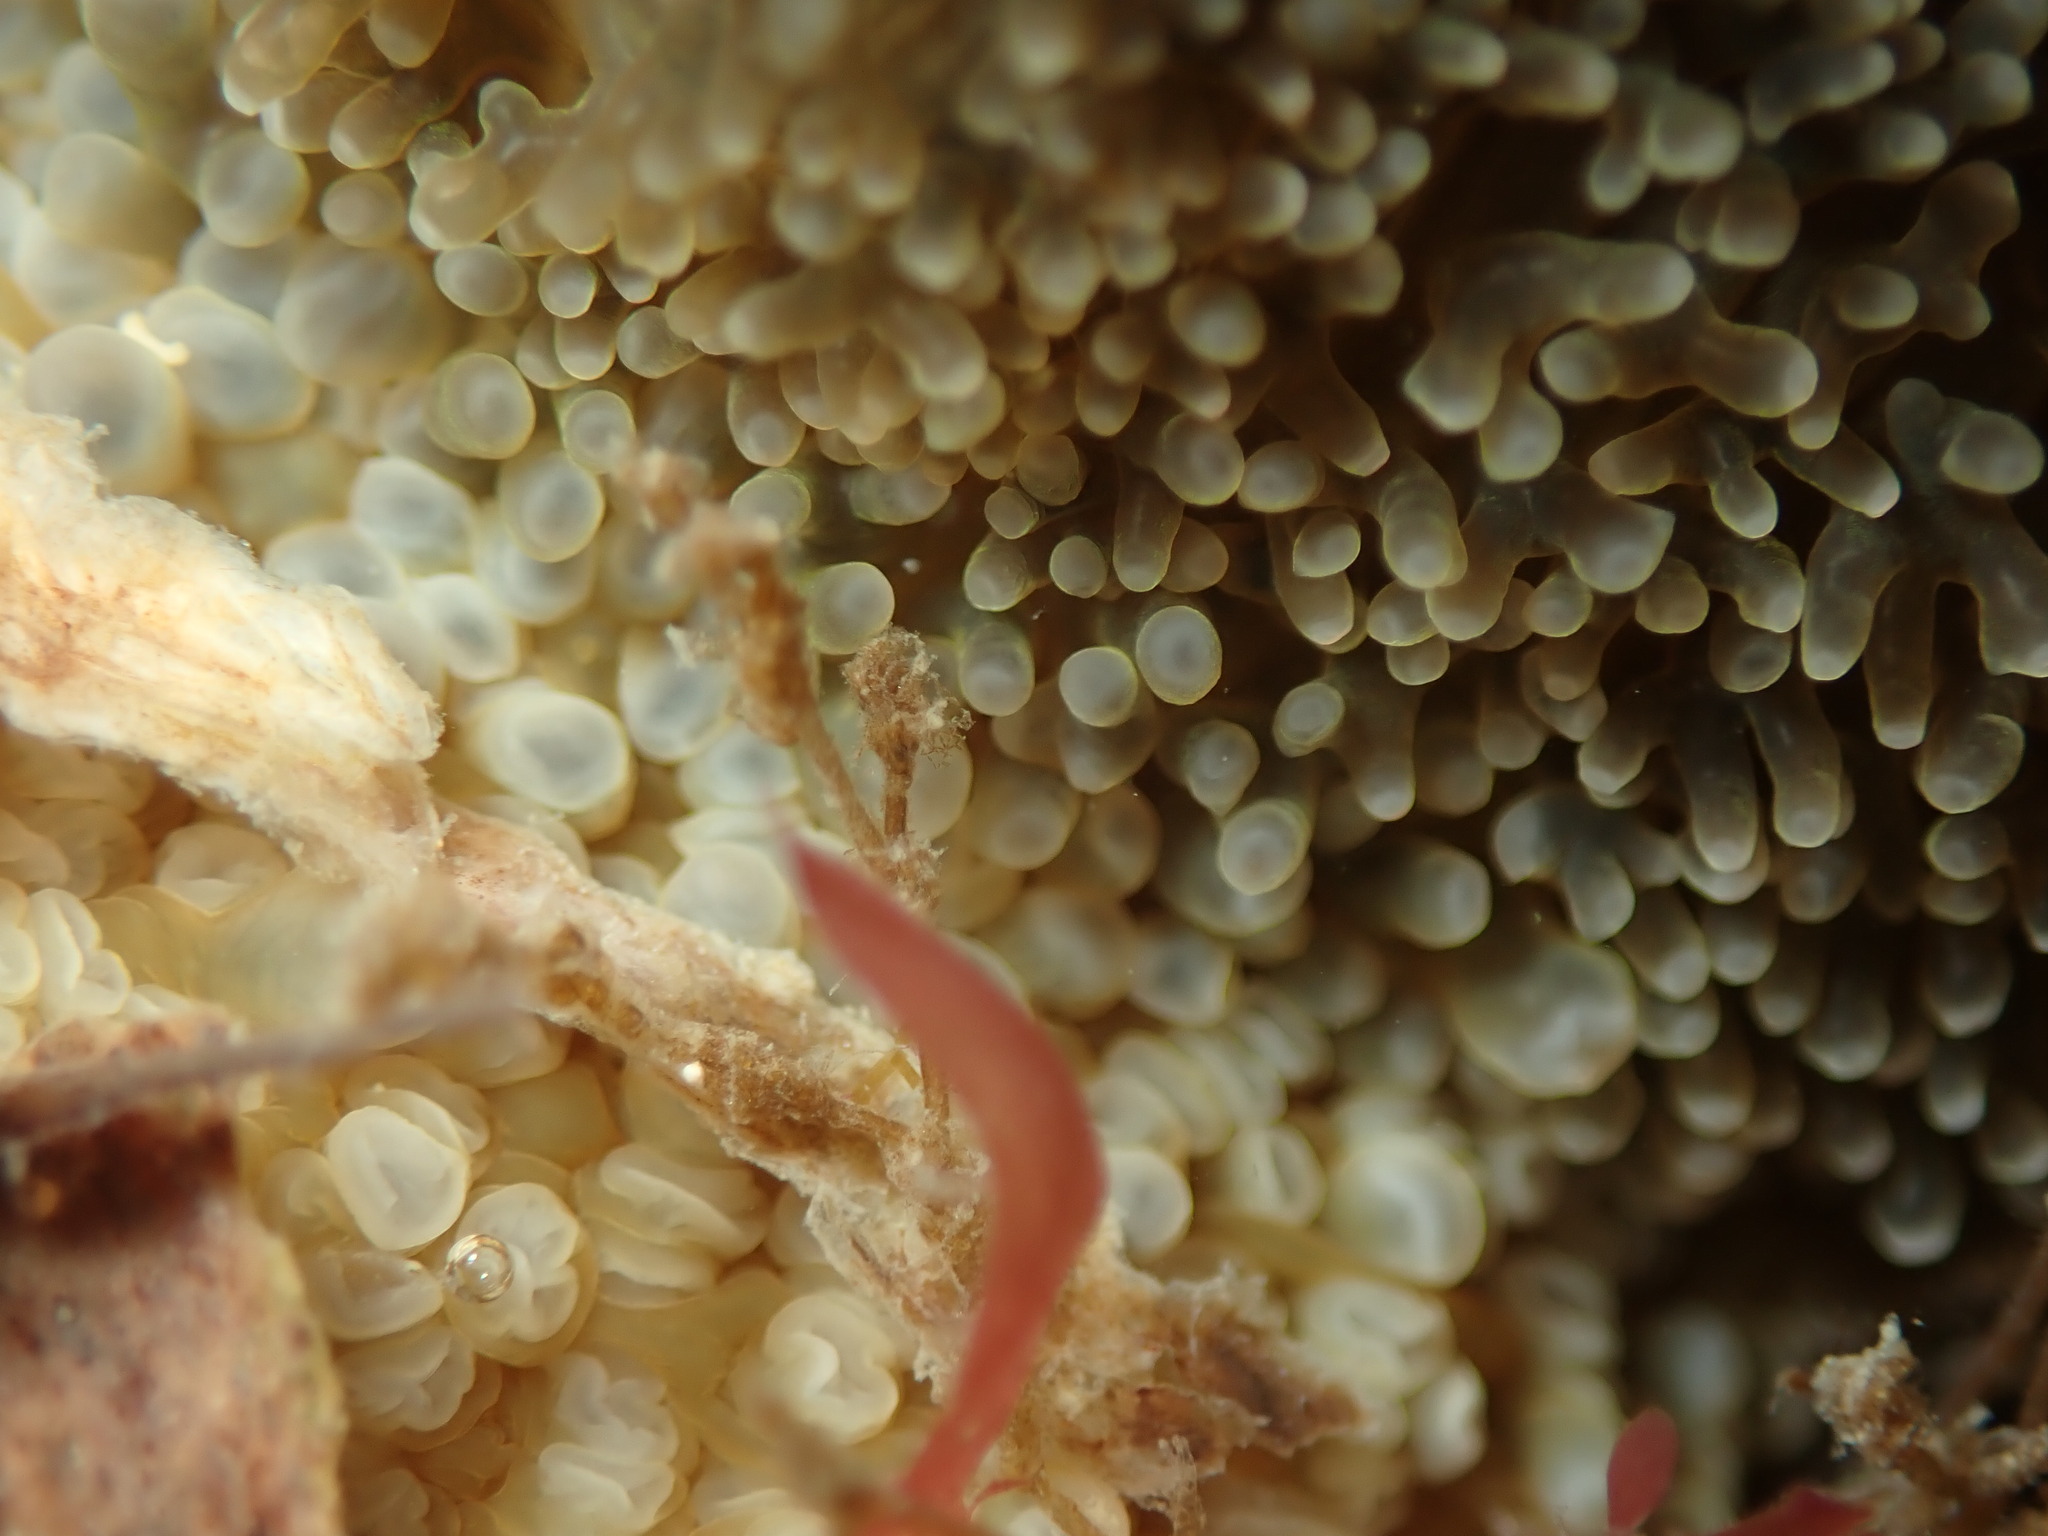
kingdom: Animalia
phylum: Cnidaria
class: Anthozoa
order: Actiniaria
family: Actiniidae
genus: Oulactis
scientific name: Oulactis magna
